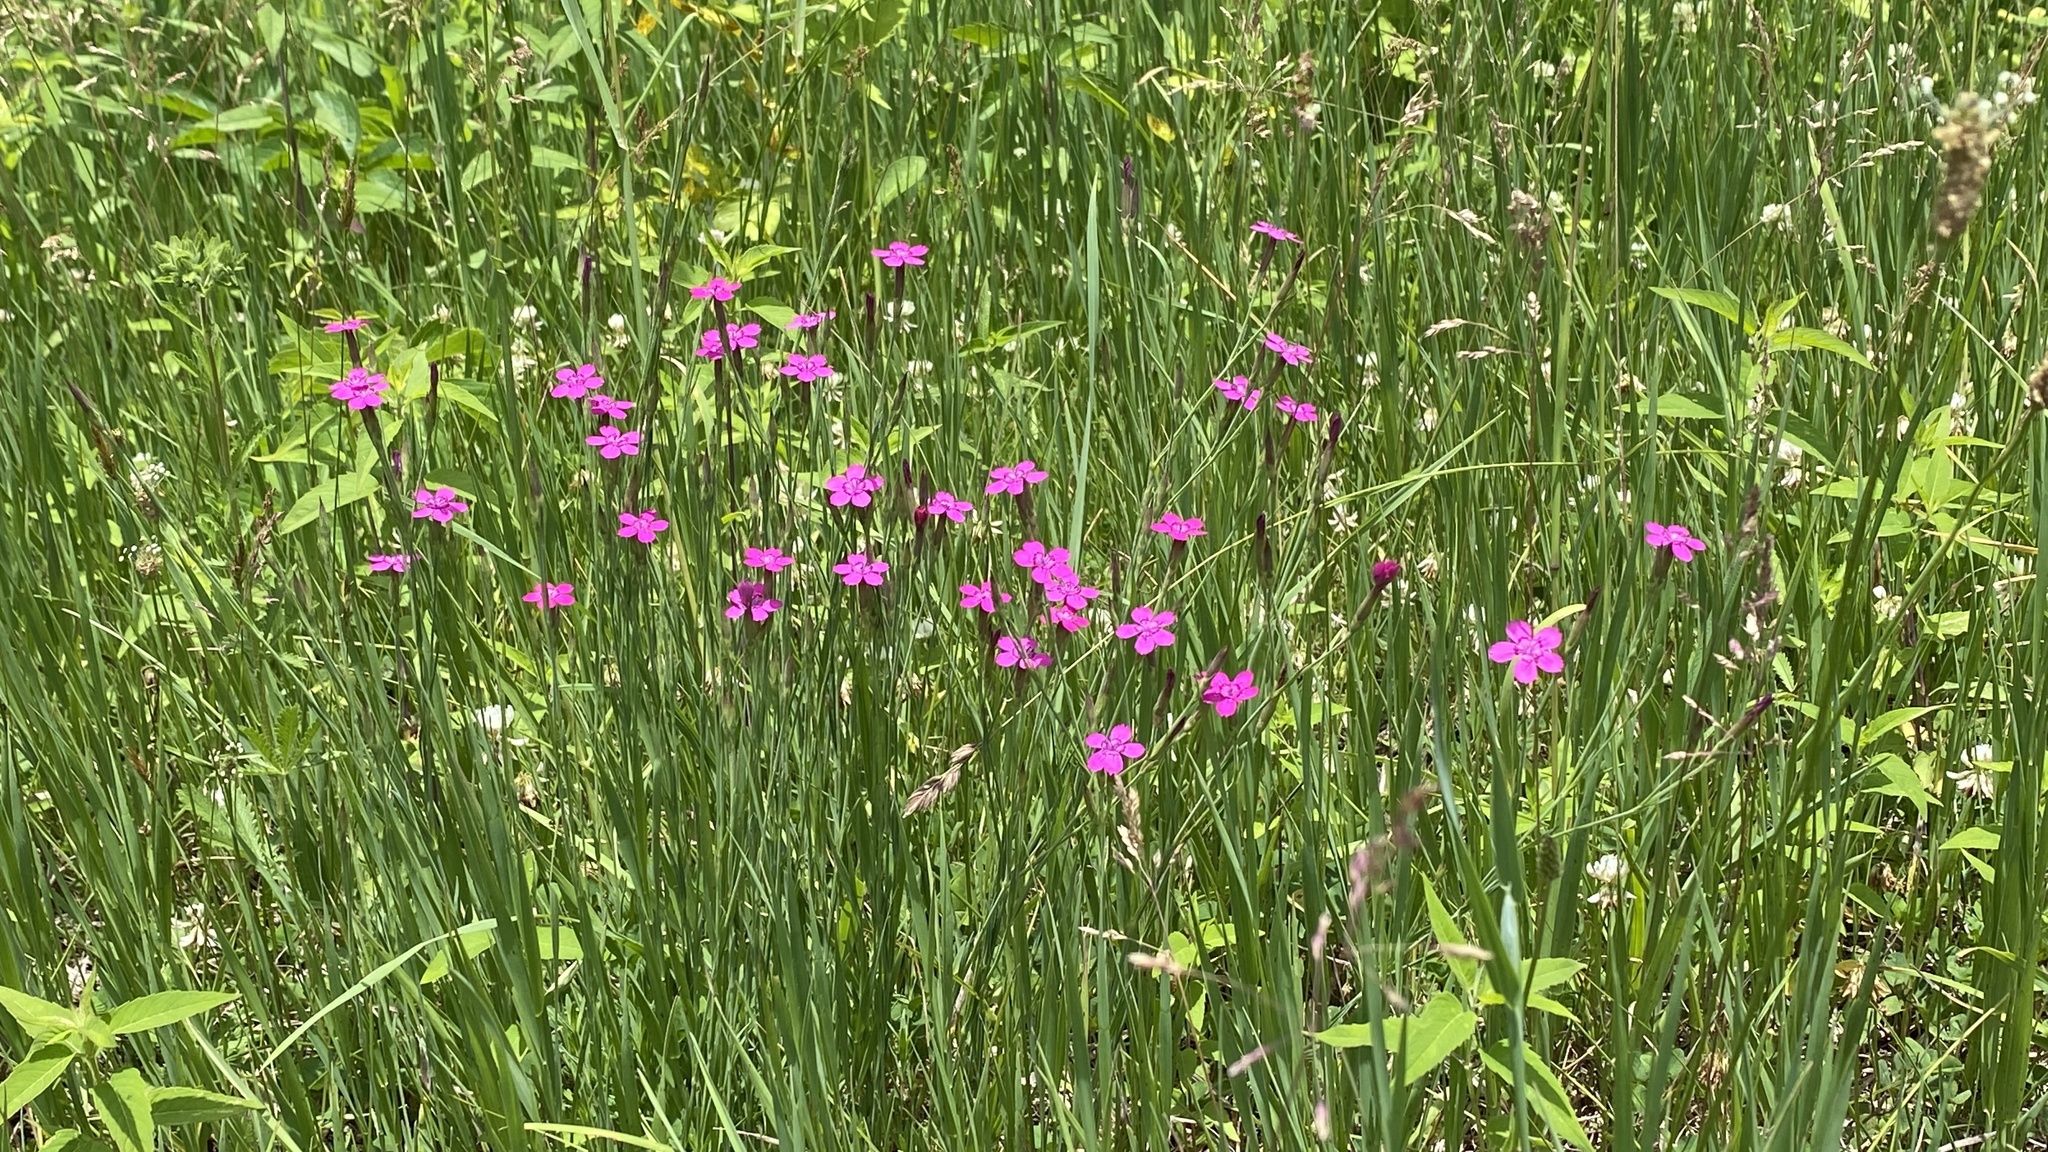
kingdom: Plantae
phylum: Tracheophyta
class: Magnoliopsida
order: Caryophyllales
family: Caryophyllaceae
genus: Dianthus
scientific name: Dianthus deltoides
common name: Maiden pink
